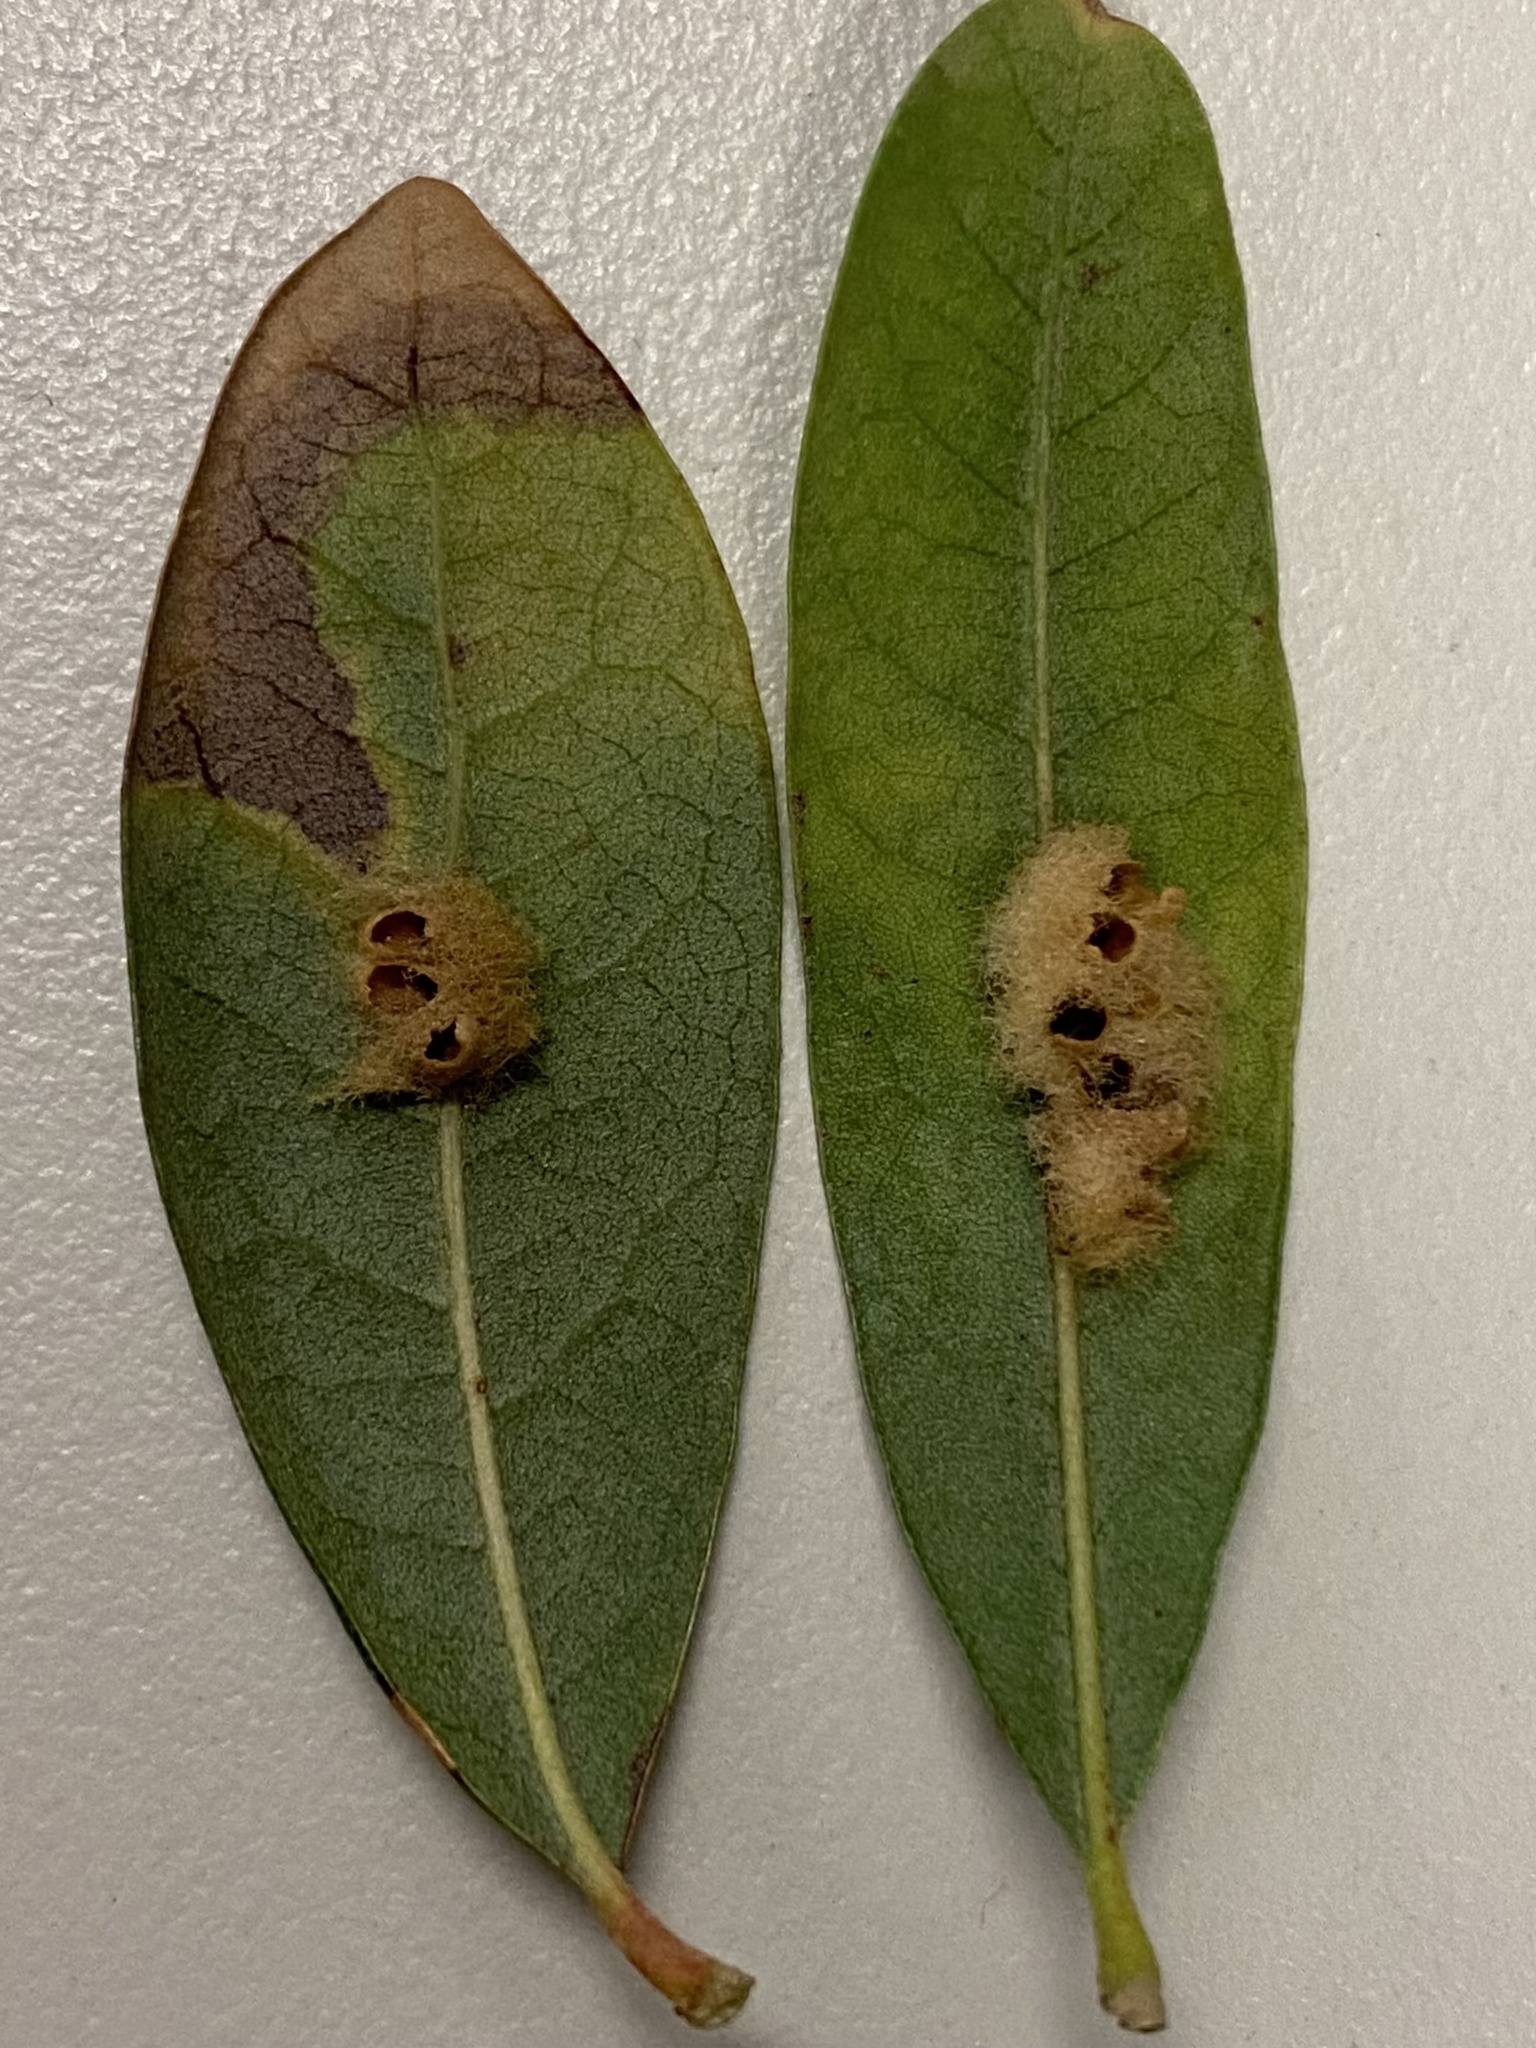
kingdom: Animalia
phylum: Arthropoda
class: Insecta
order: Hymenoptera
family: Cynipidae
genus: Andricus
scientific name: Andricus Druon quercuslanigerum
